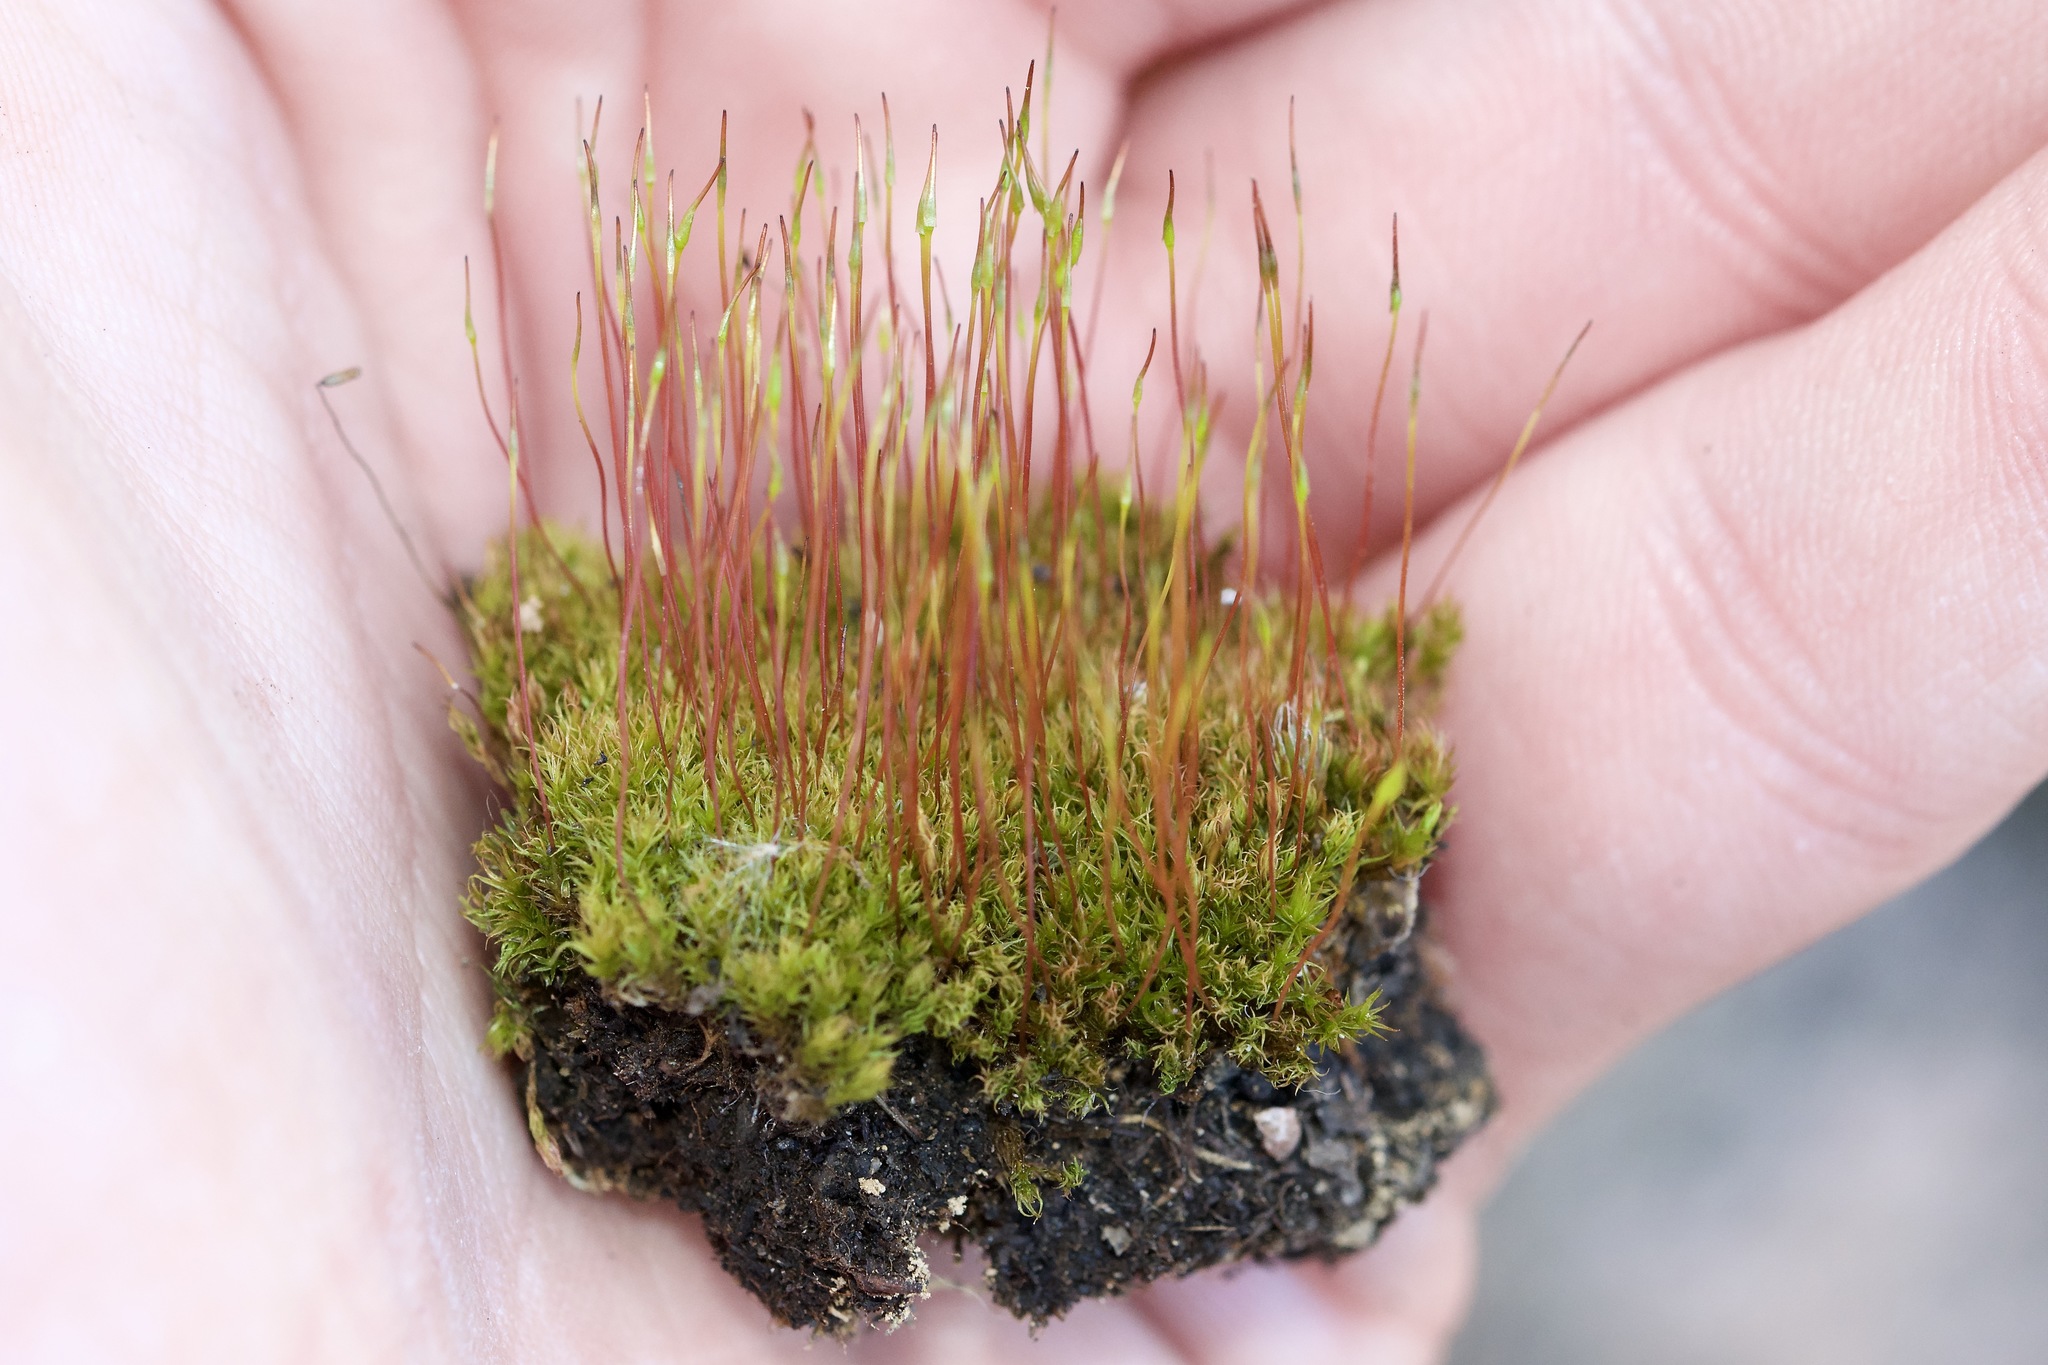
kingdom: Plantae
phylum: Bryophyta
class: Bryopsida
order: Dicranales
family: Ditrichaceae
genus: Ceratodon
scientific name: Ceratodon purpureus
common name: Redshank
